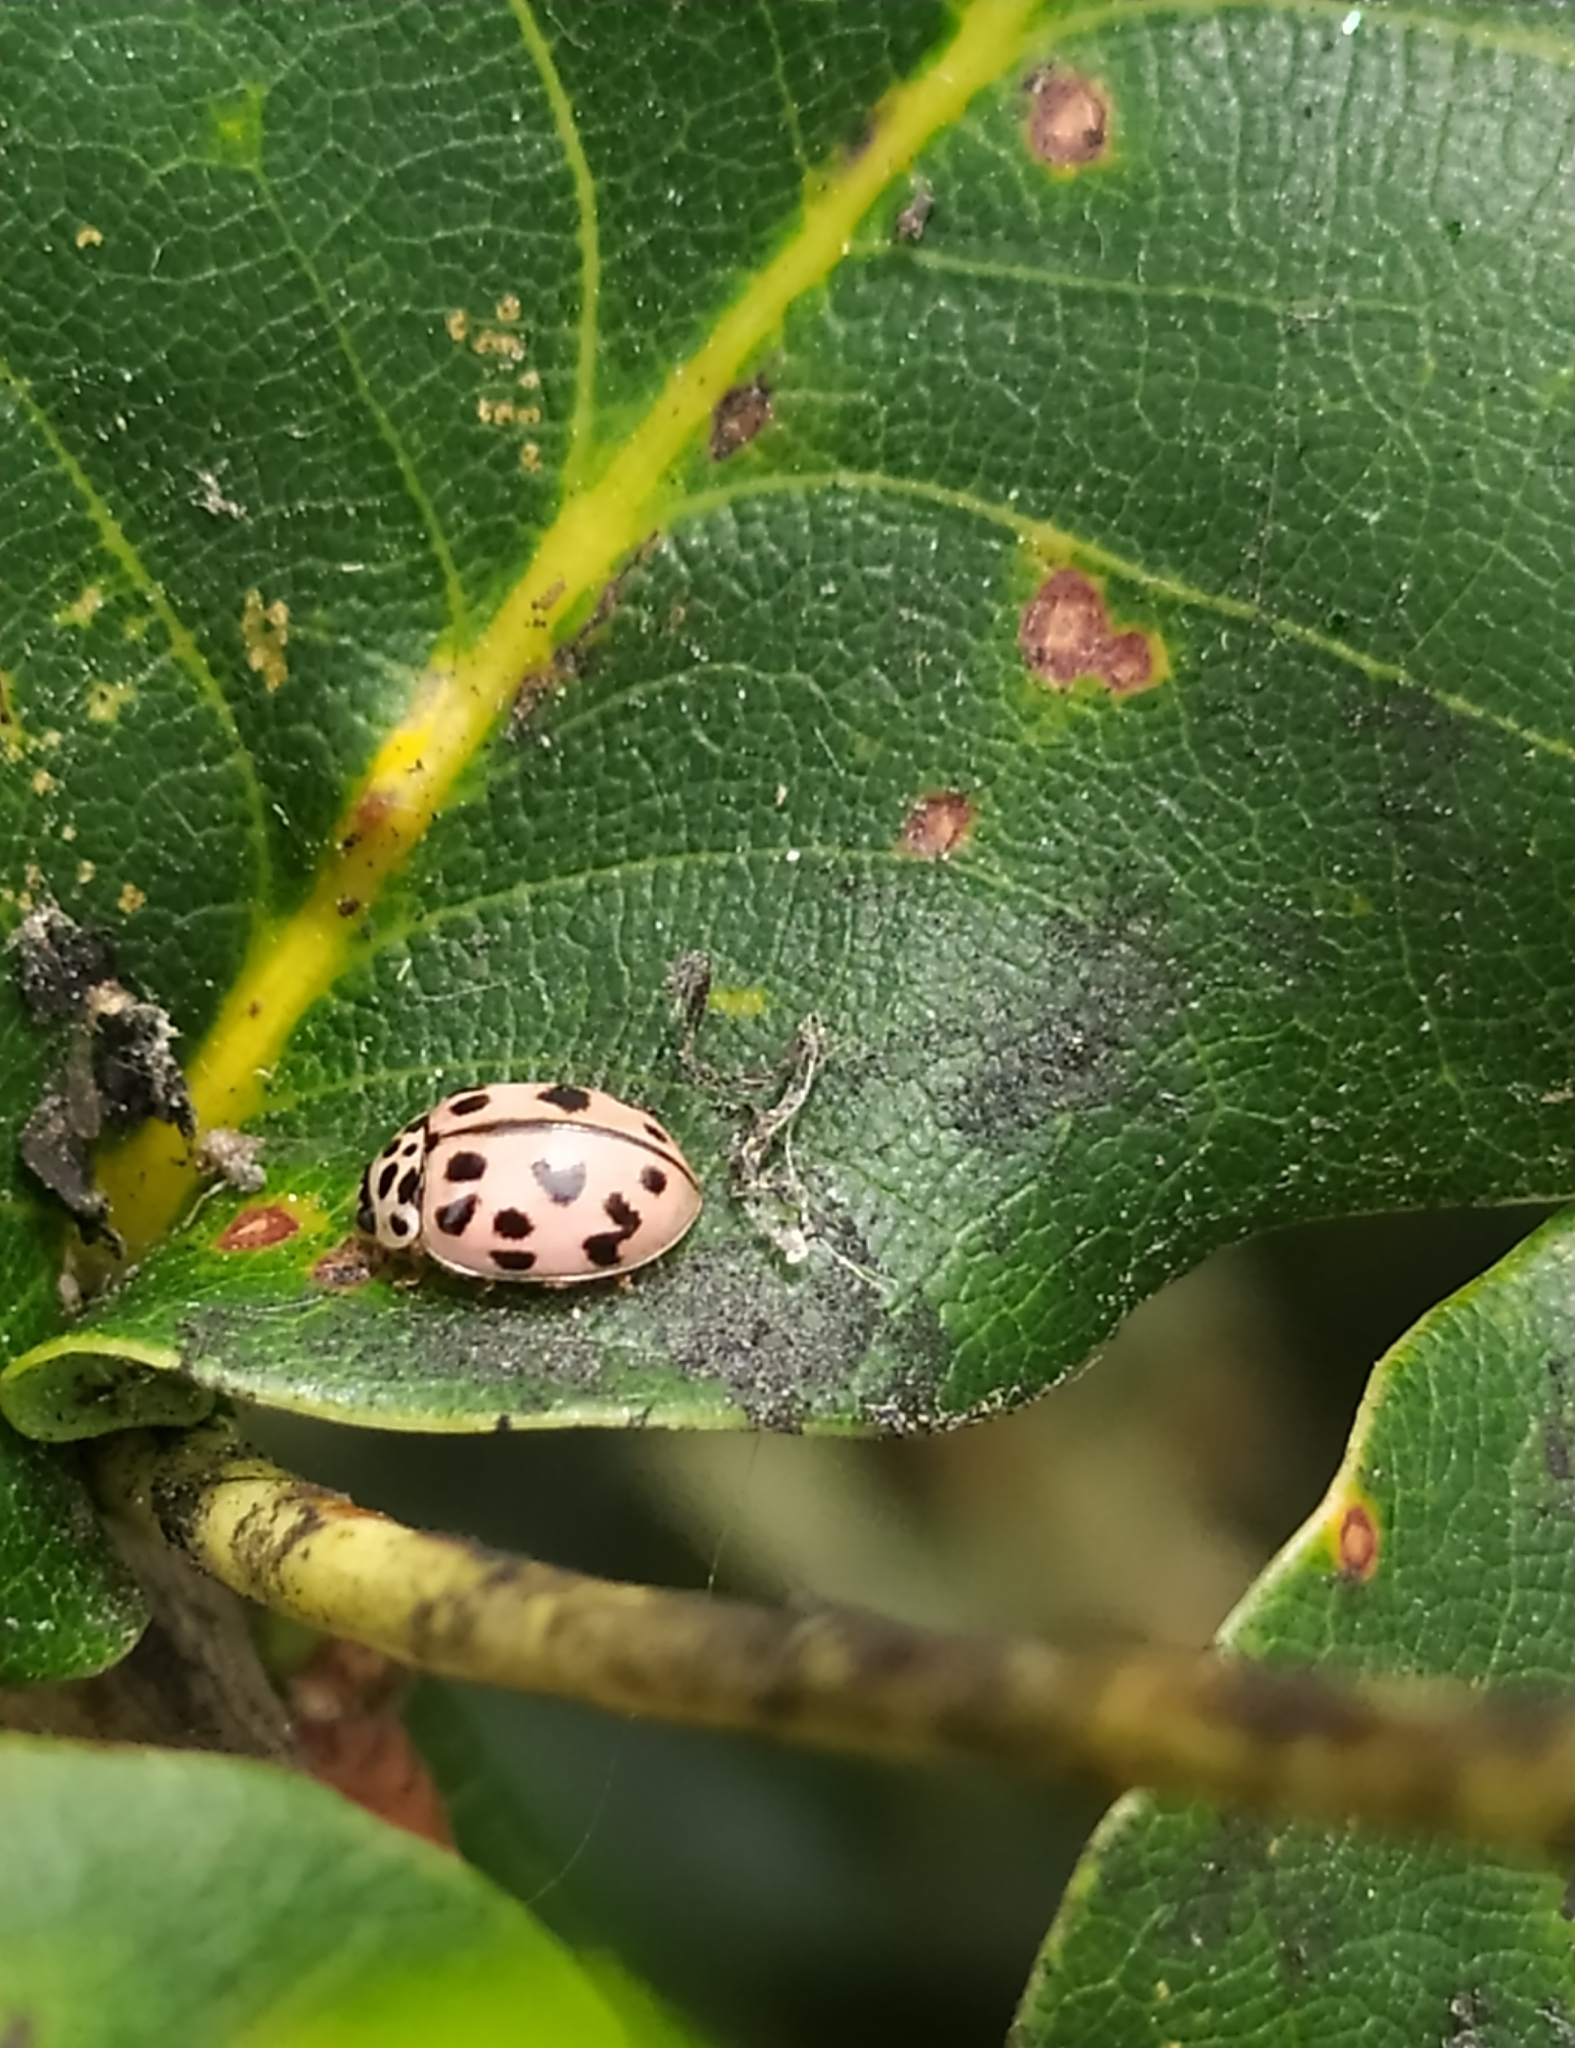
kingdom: Animalia
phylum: Arthropoda
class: Insecta
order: Coleoptera
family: Coccinellidae
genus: Oenopia
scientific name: Oenopia conglobata
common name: Ladybird beetle
